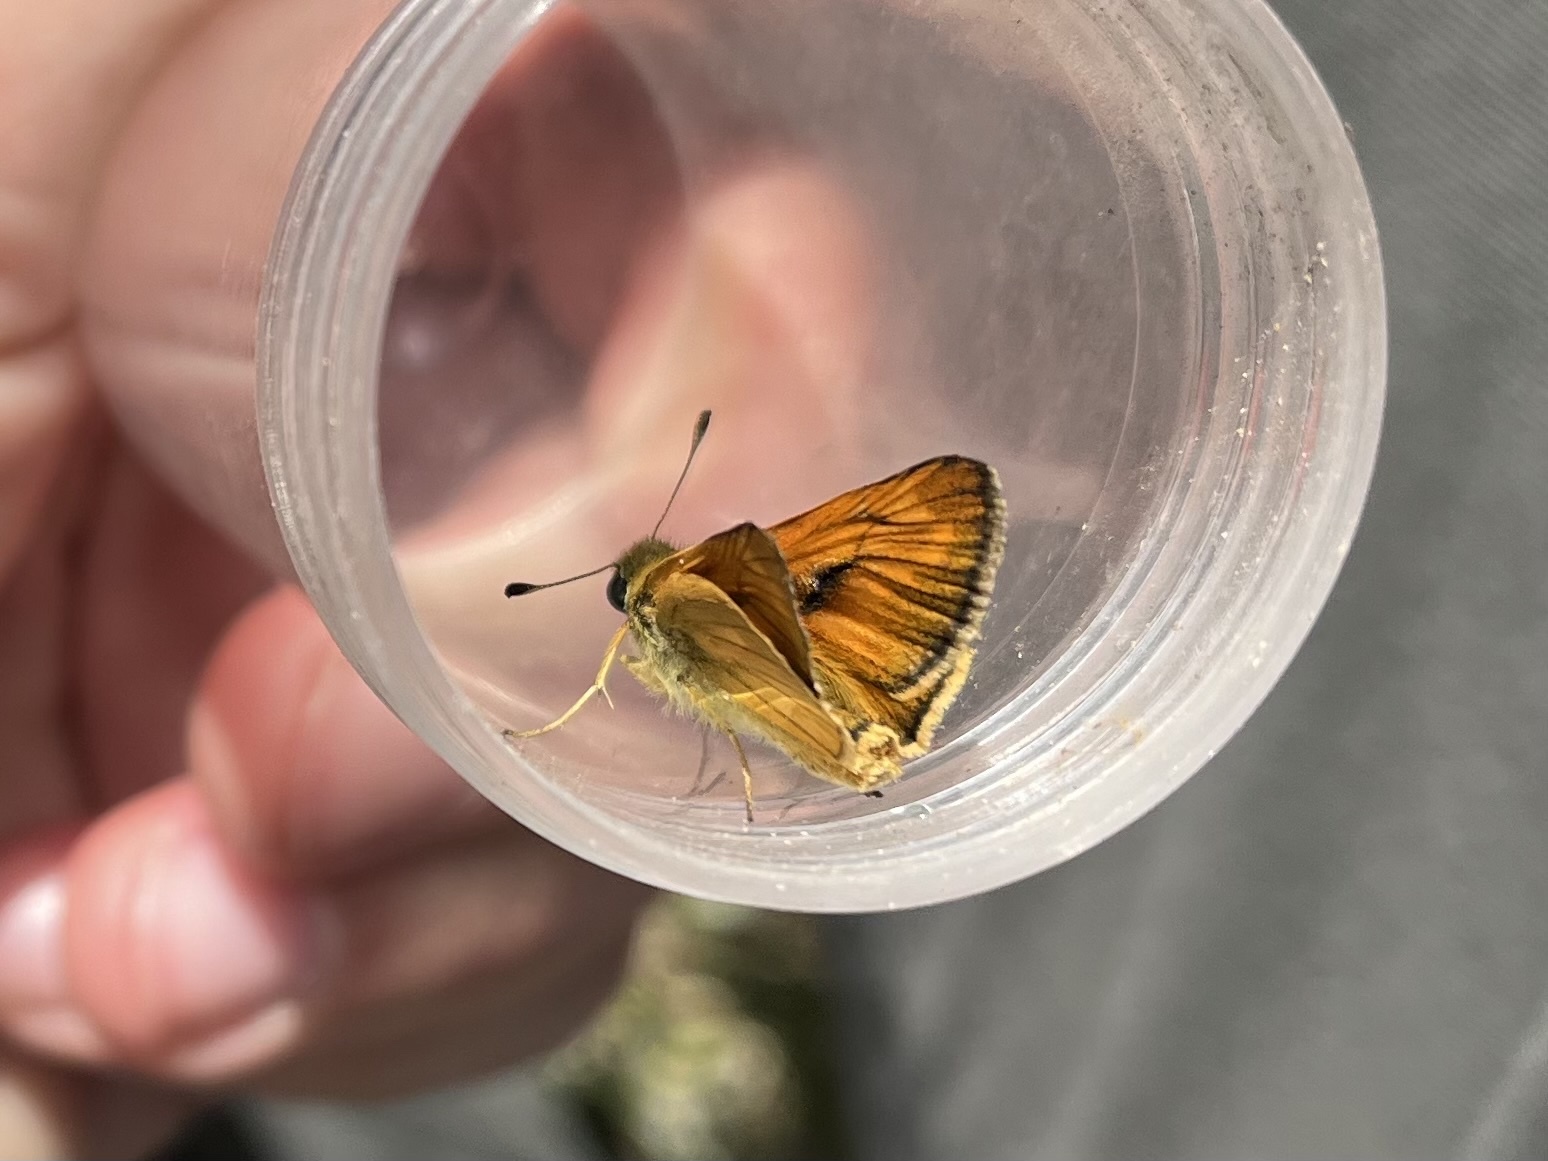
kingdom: Animalia
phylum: Arthropoda
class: Insecta
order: Lepidoptera
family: Hesperiidae
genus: Ochlodes
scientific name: Ochlodes venata
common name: Large skipper
